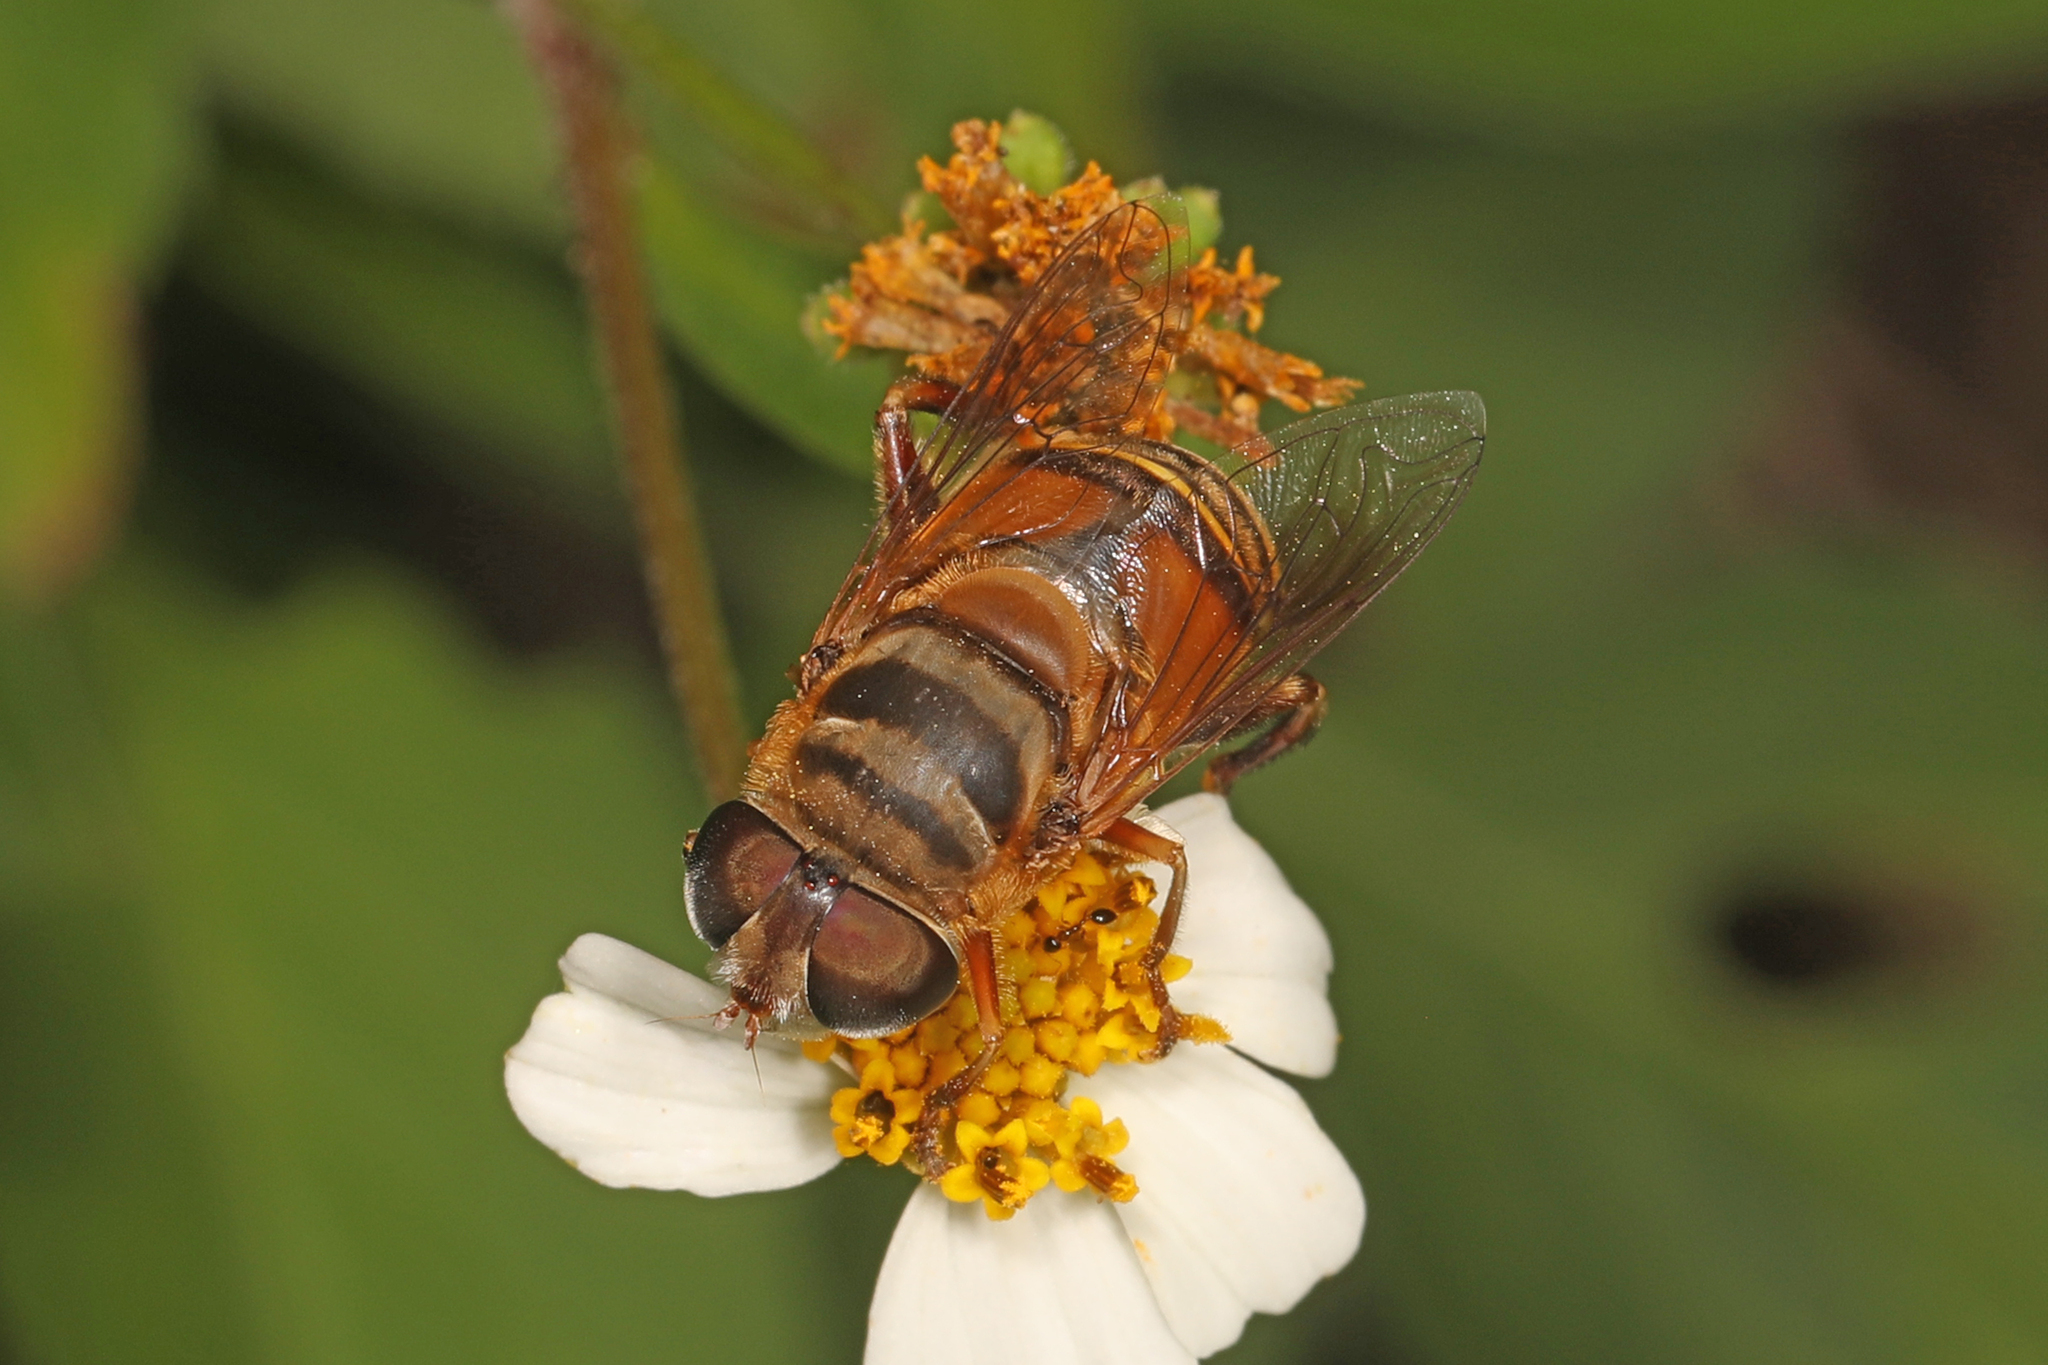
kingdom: Animalia
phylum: Arthropoda
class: Insecta
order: Diptera
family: Syrphidae
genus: Palpada
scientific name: Palpada vinetorum
